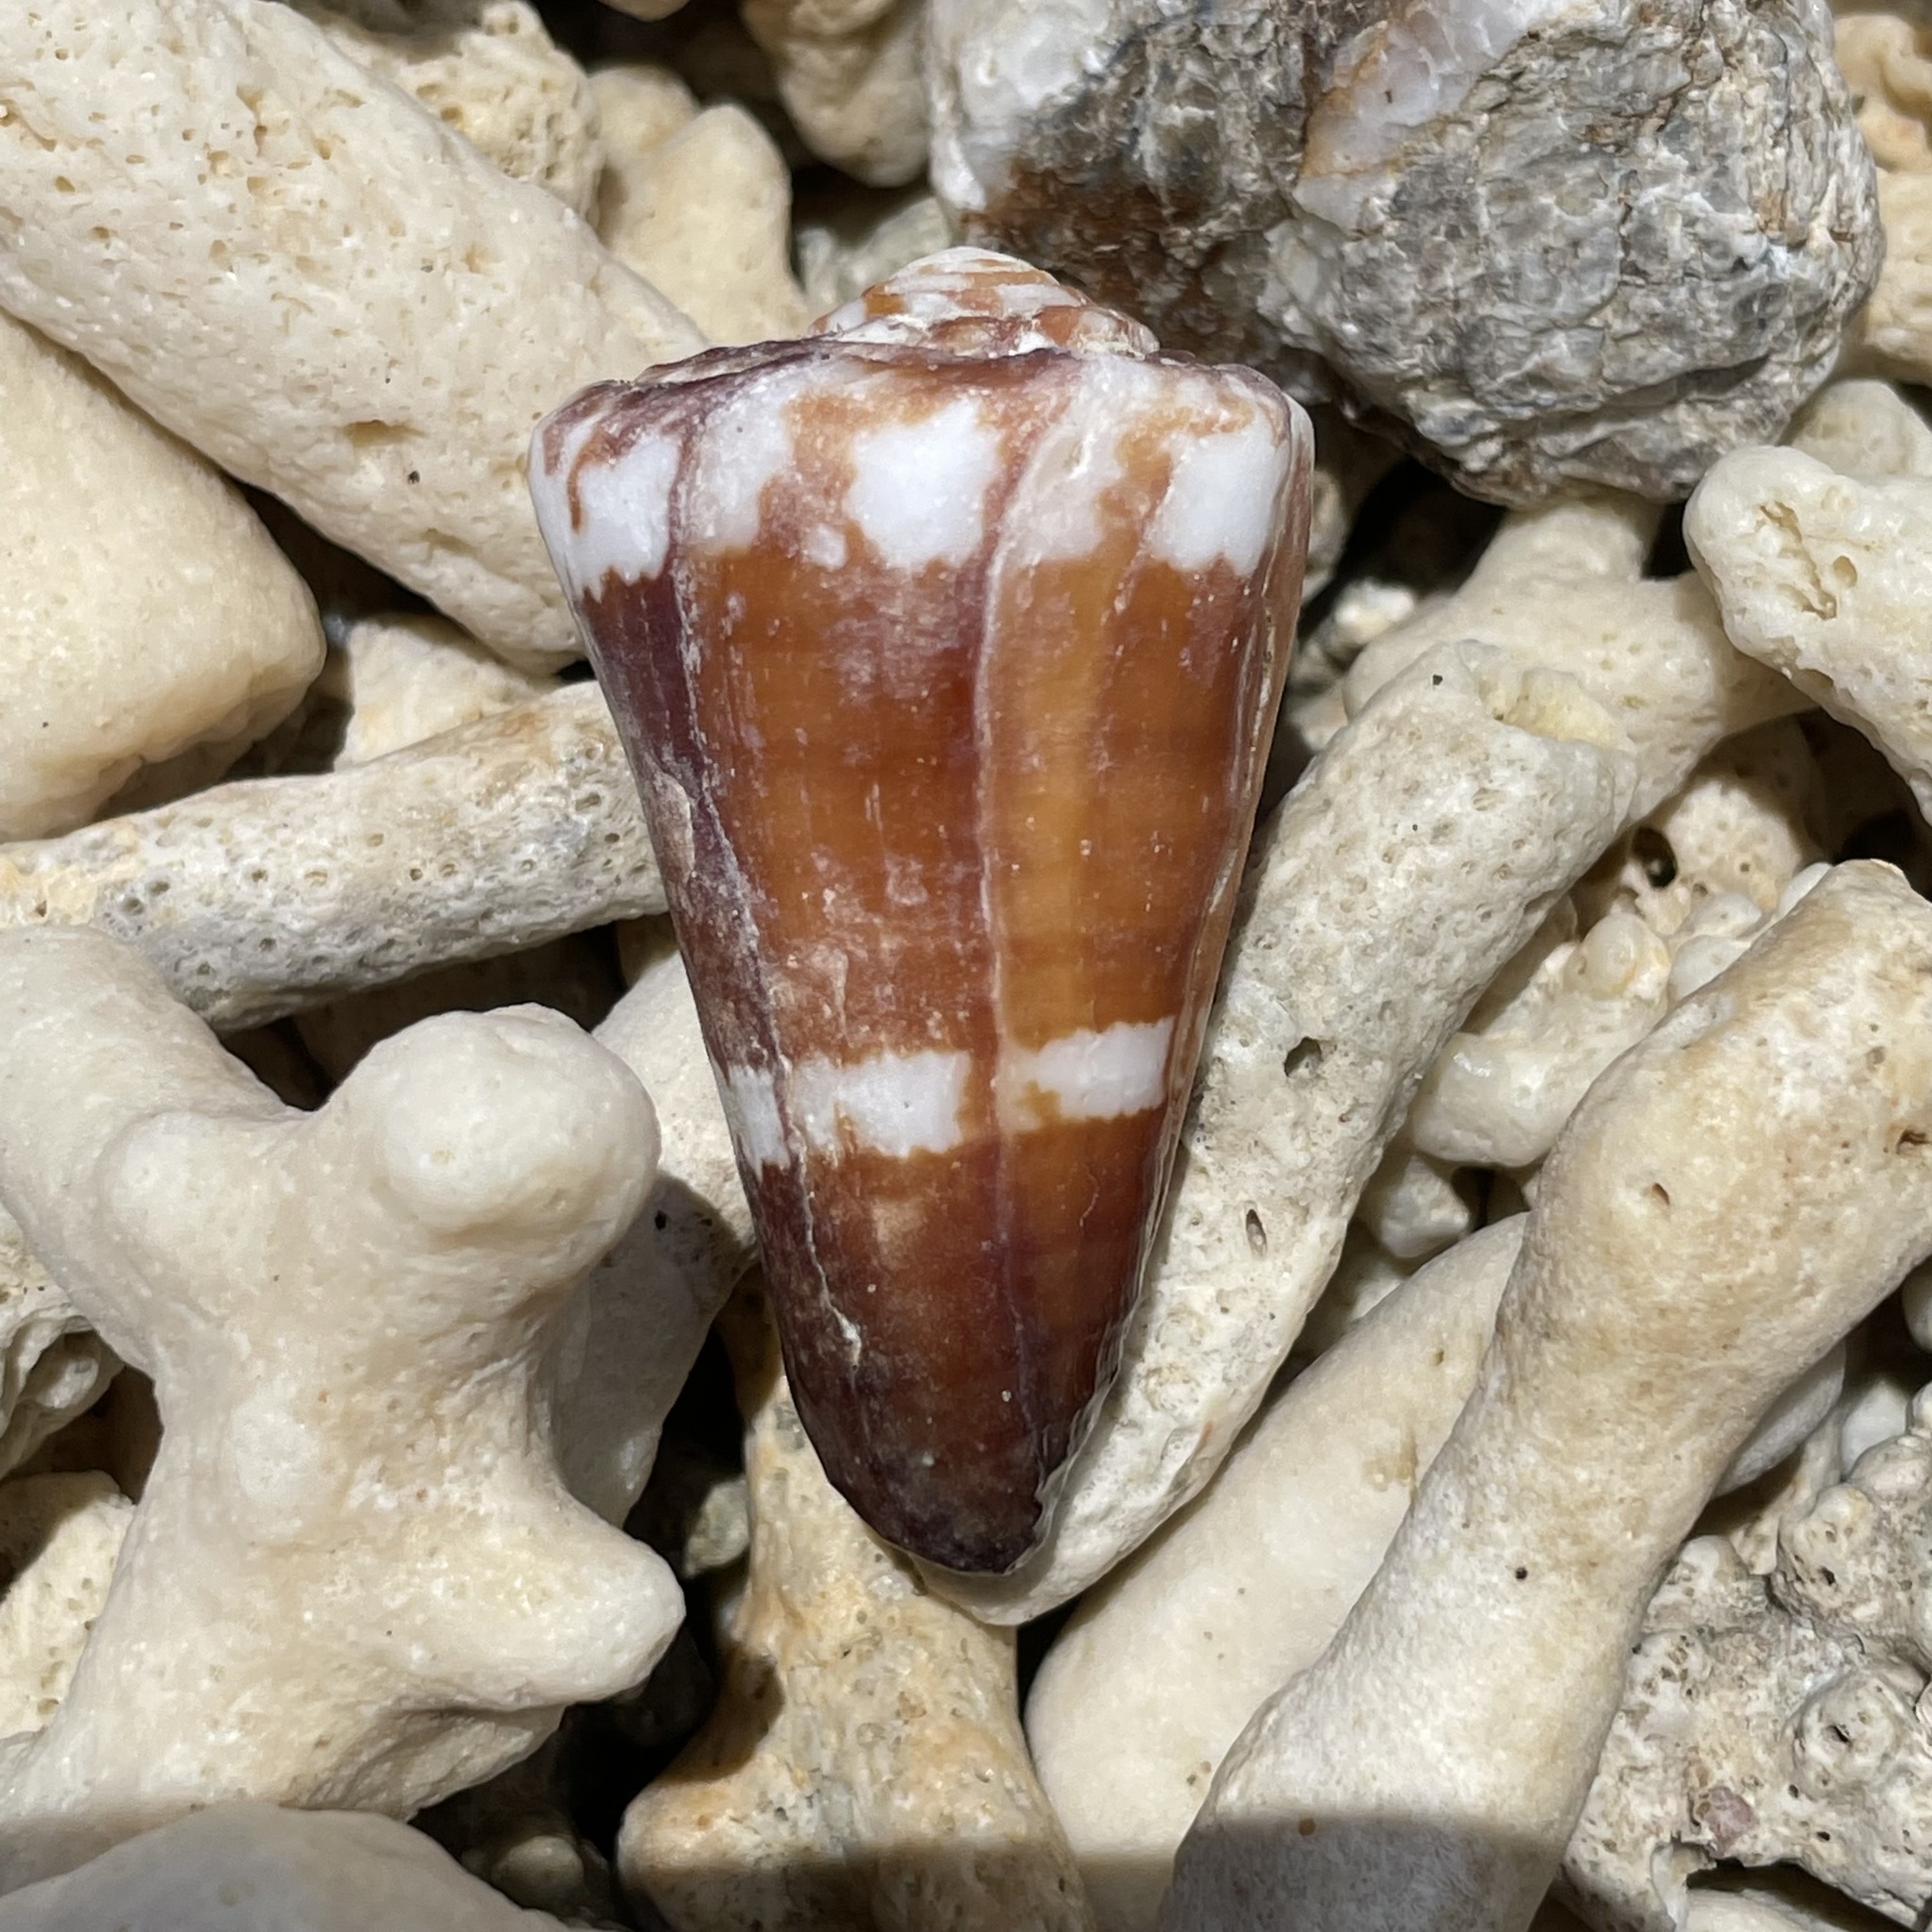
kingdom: Animalia
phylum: Mollusca
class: Gastropoda
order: Neogastropoda
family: Conidae
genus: Conus
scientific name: Conus litoglyphus
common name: Lithograph cone
